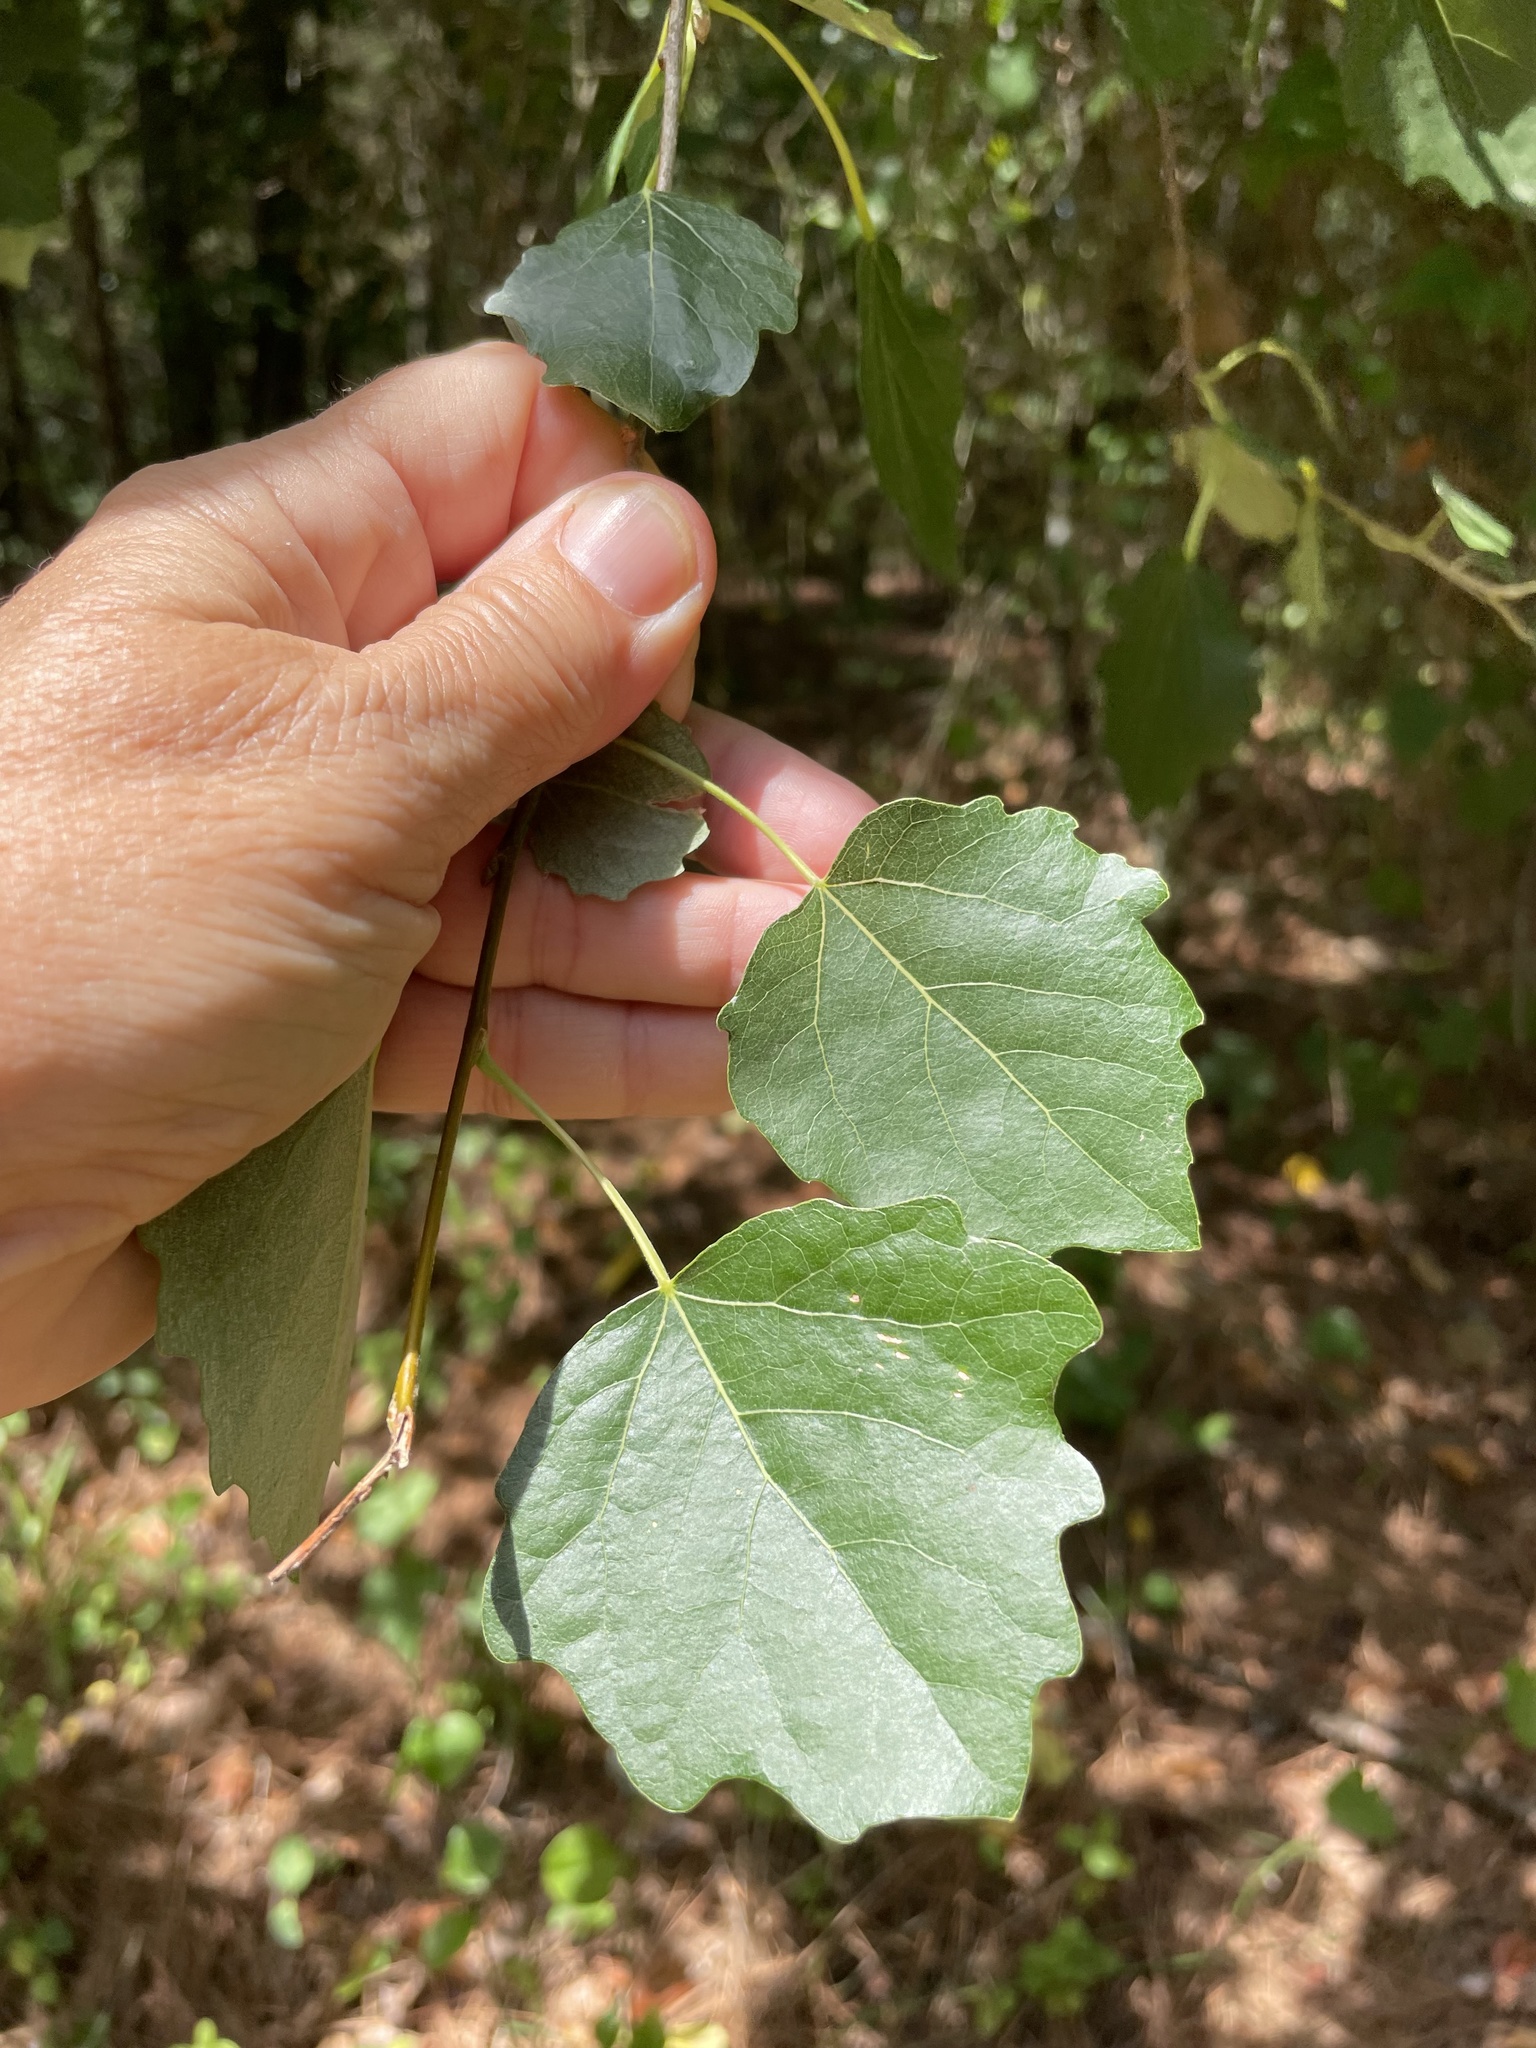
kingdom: Plantae
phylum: Tracheophyta
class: Magnoliopsida
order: Malpighiales
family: Salicaceae
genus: Populus
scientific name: Populus alba
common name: White poplar
